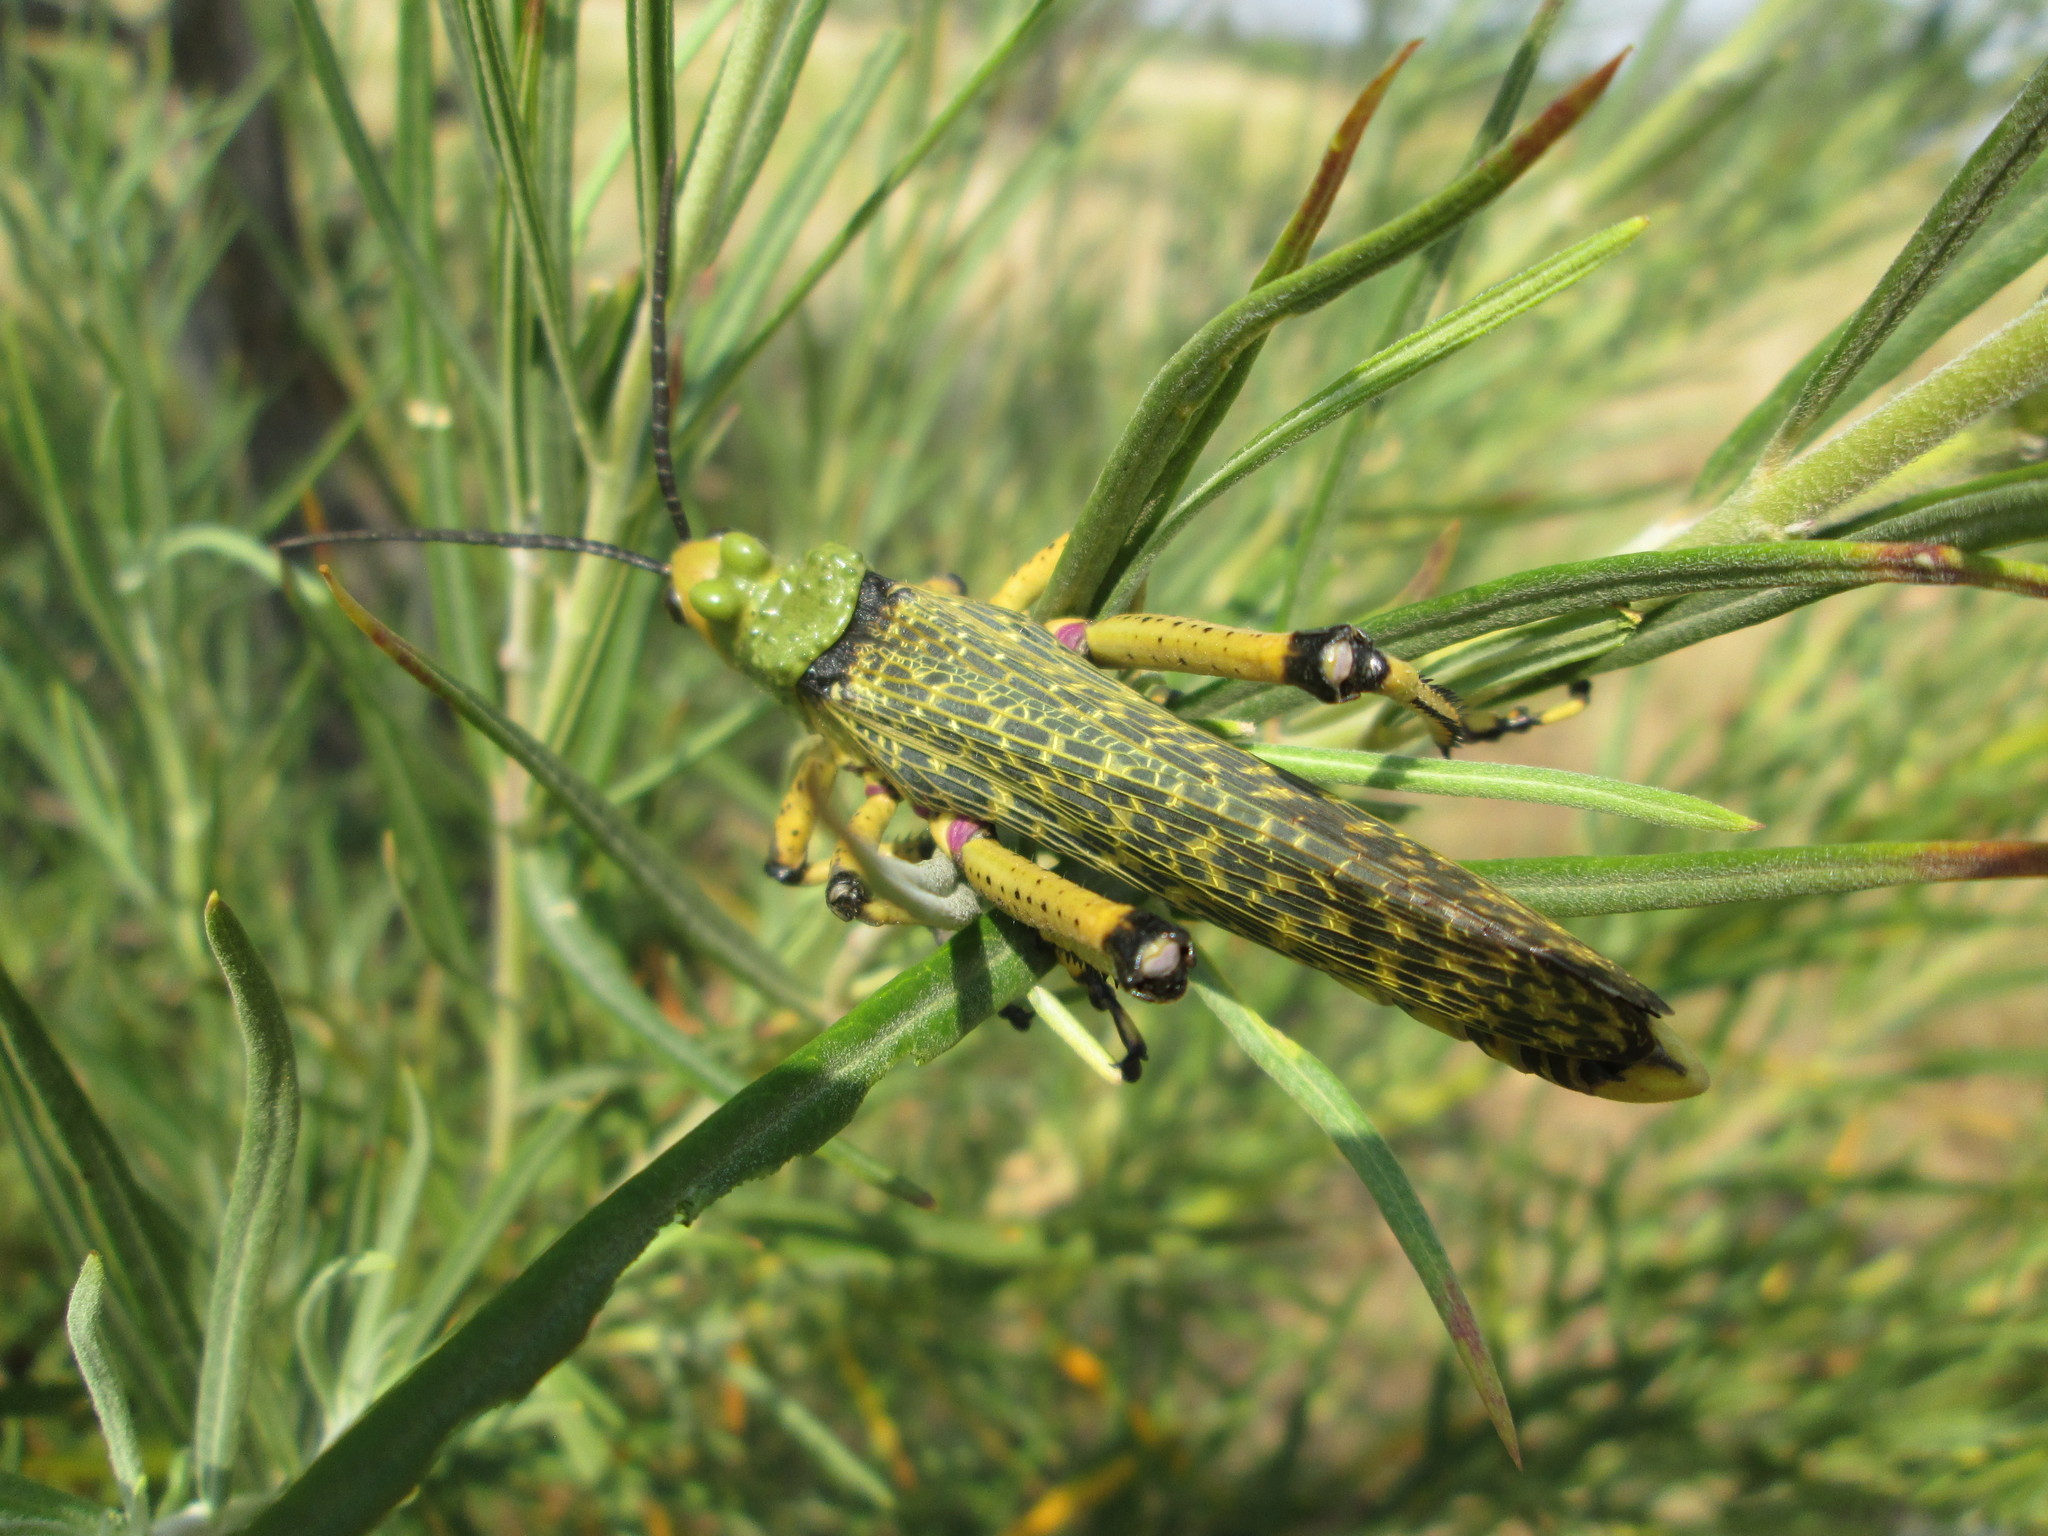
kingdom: Animalia
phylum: Arthropoda
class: Insecta
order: Orthoptera
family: Pyrgomorphidae
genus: Phymateus
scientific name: Phymateus leprosus
